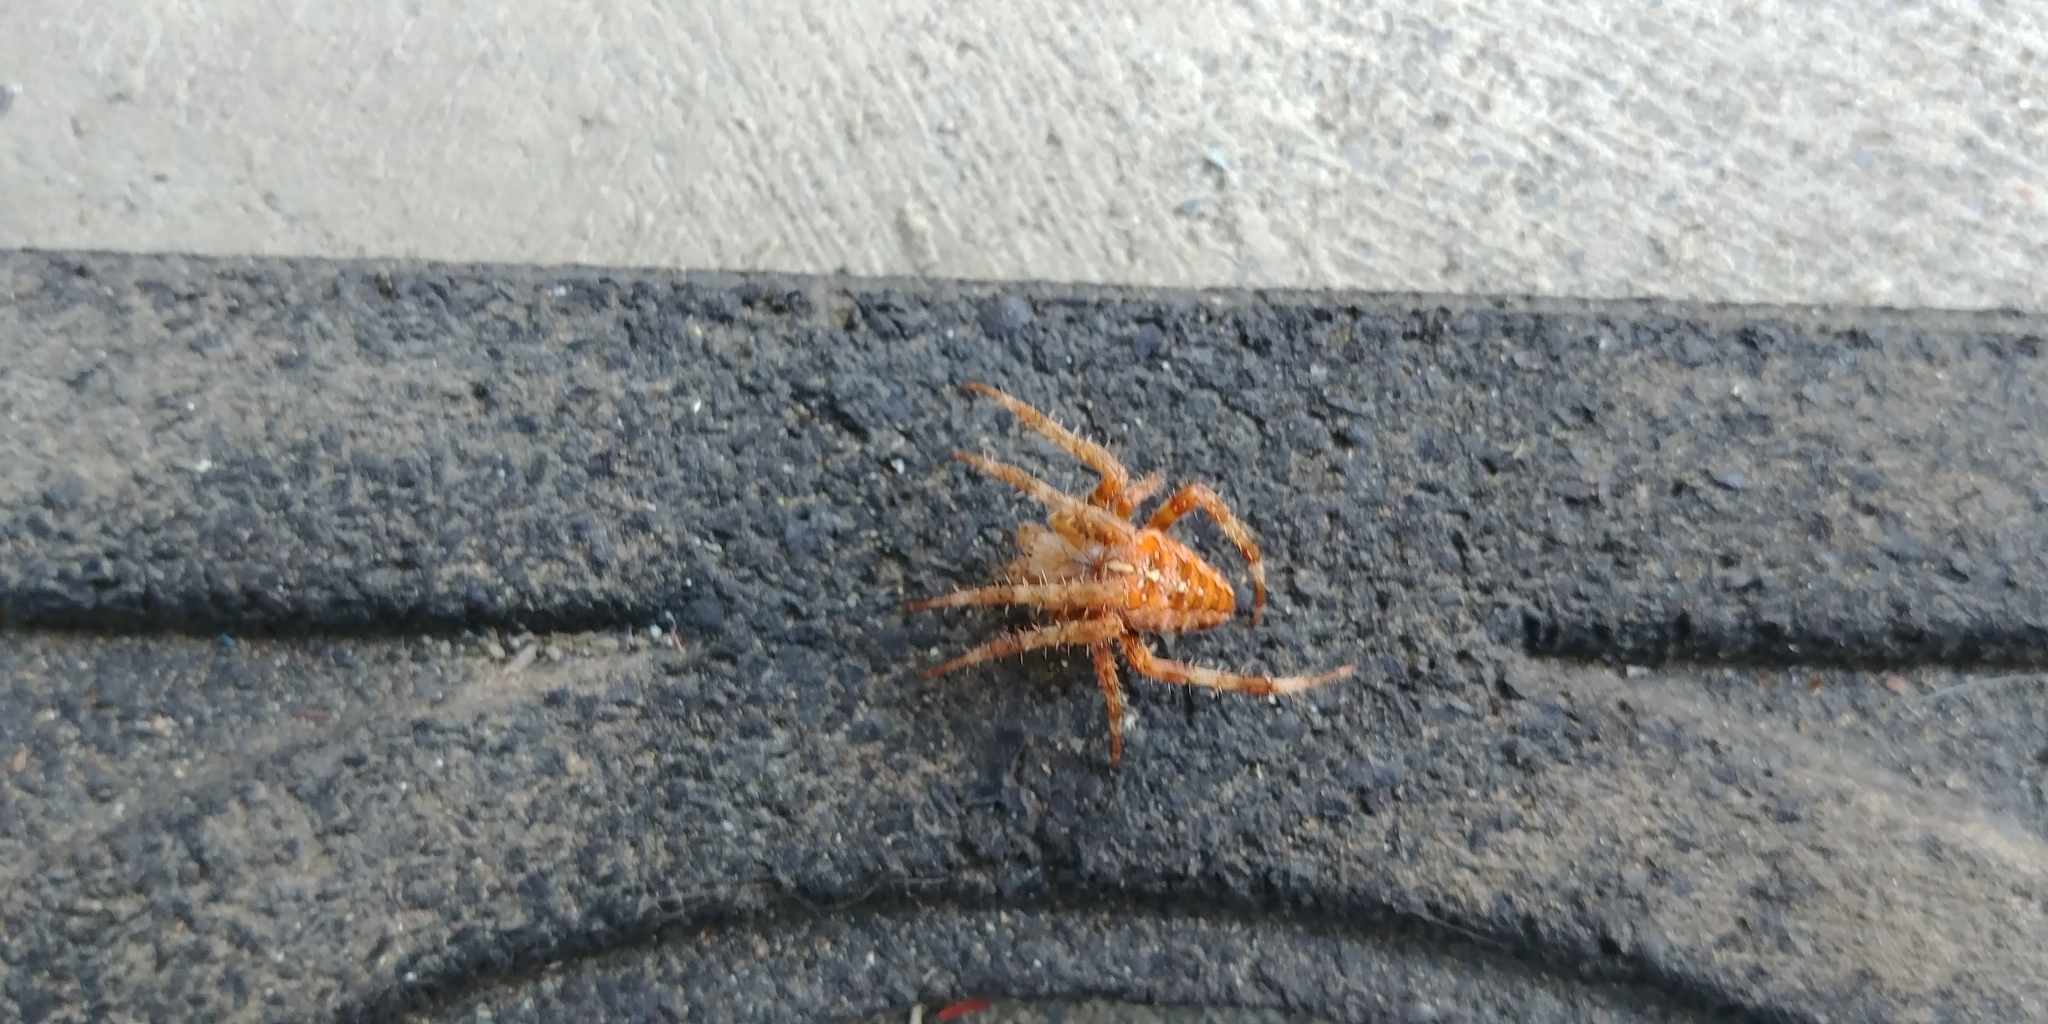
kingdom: Animalia
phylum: Arthropoda
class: Arachnida
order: Araneae
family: Araneidae
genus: Araneus
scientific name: Araneus diadematus
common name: Cross orbweaver
